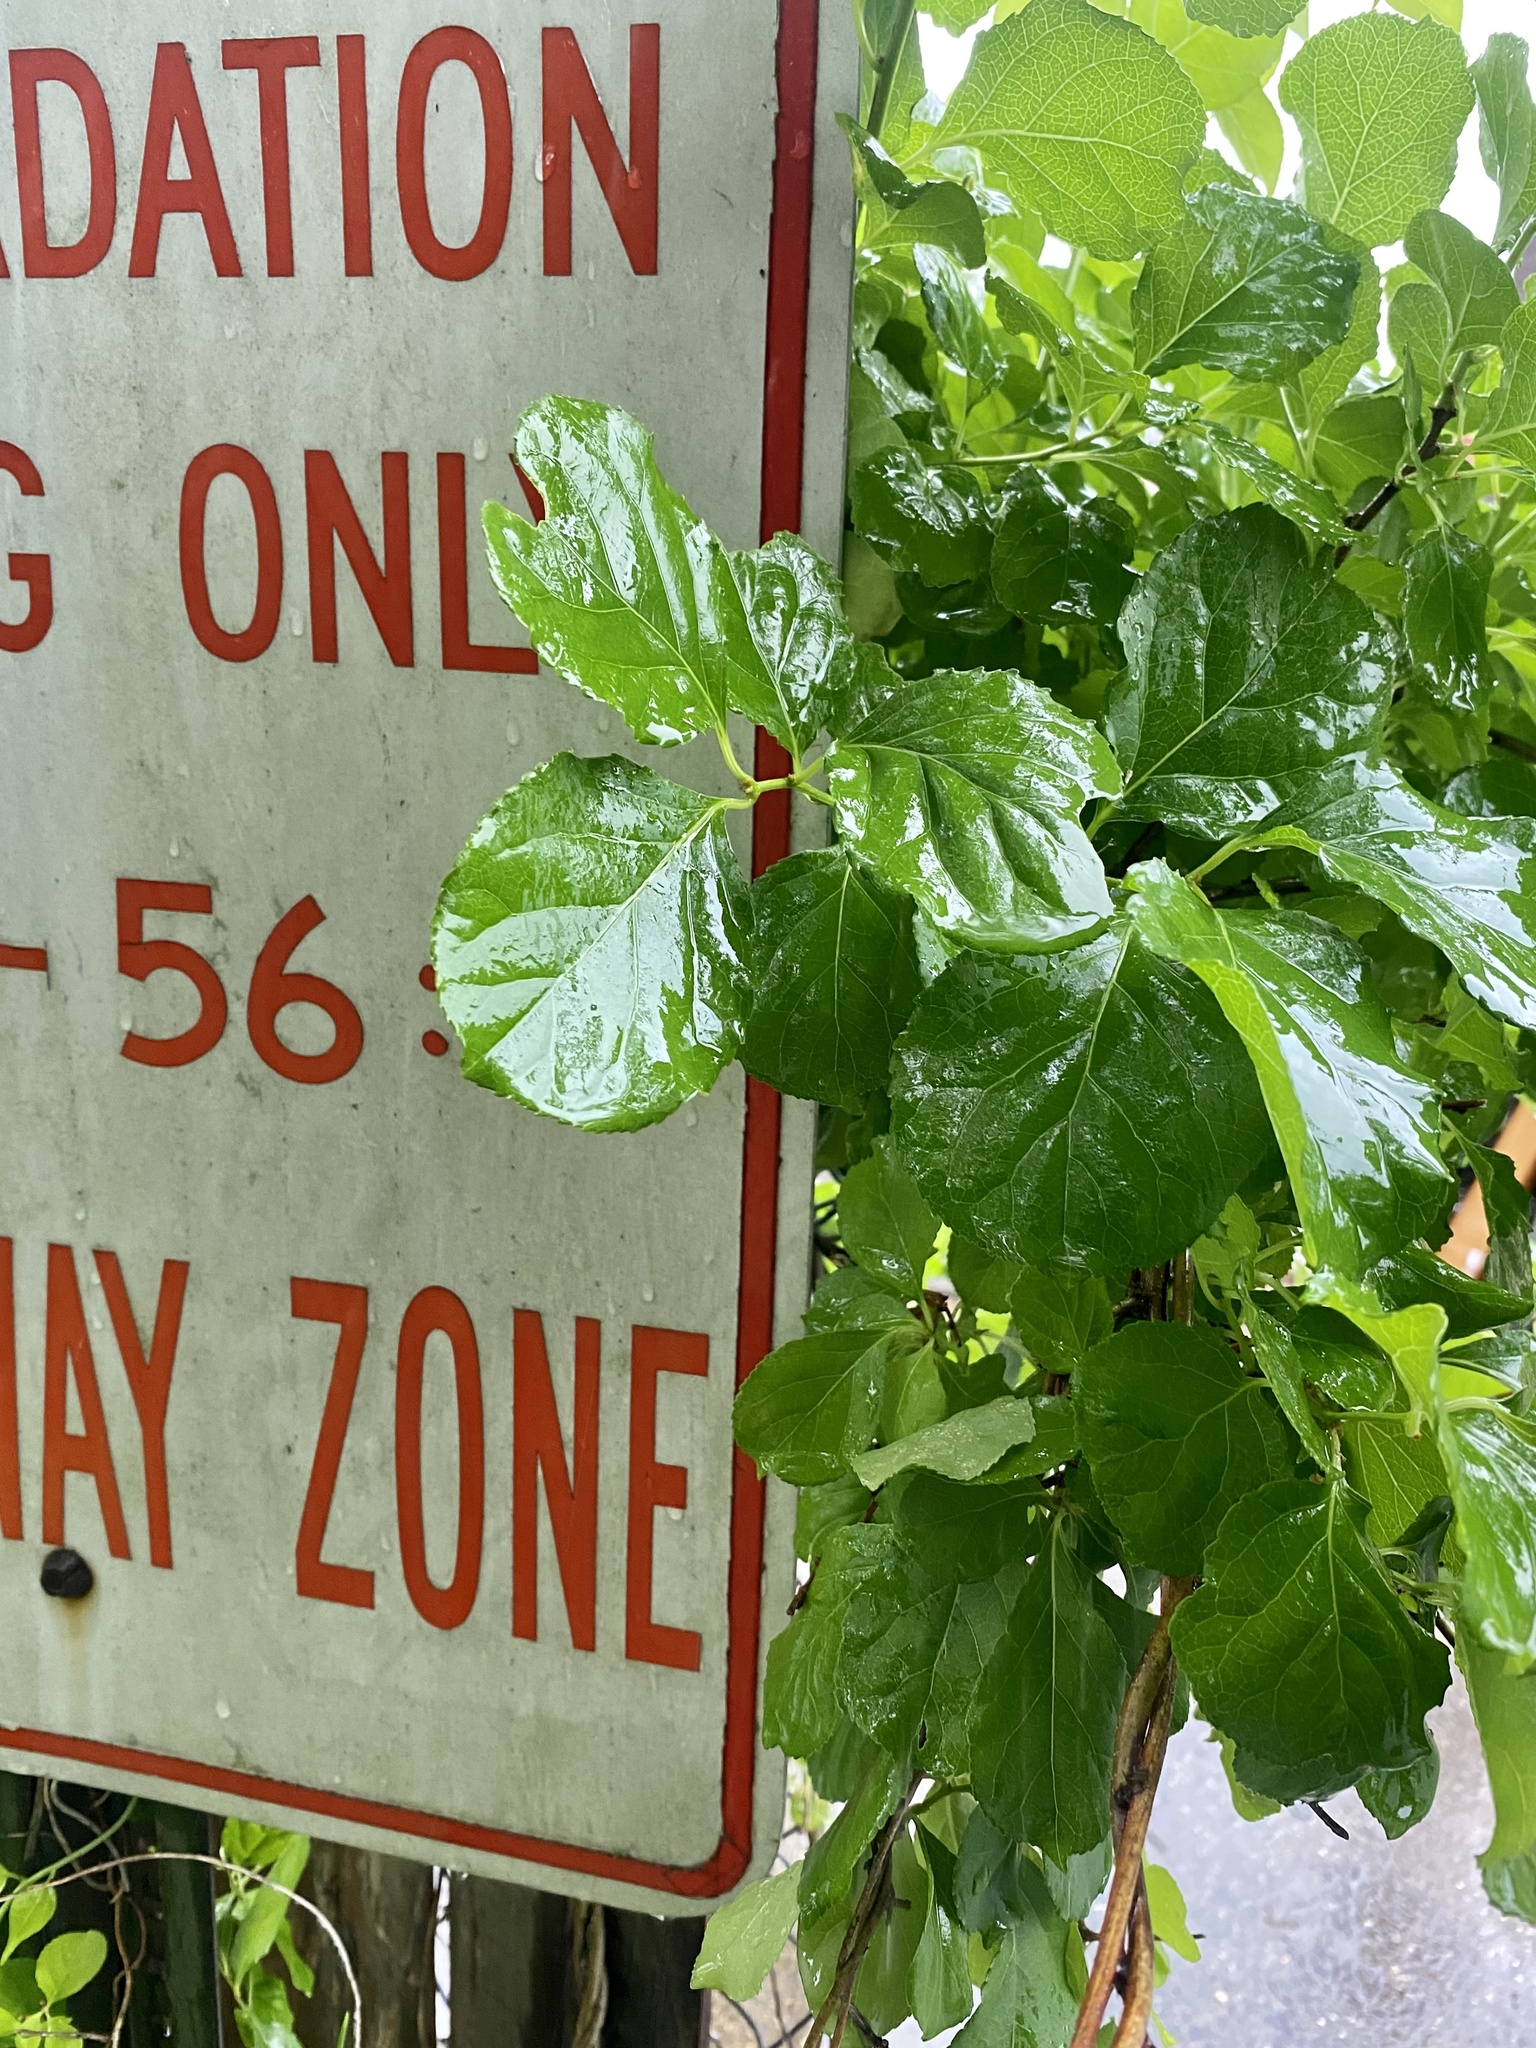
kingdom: Plantae
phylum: Tracheophyta
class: Magnoliopsida
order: Celastrales
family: Celastraceae
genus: Celastrus
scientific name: Celastrus orbiculatus
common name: Oriental bittersweet
